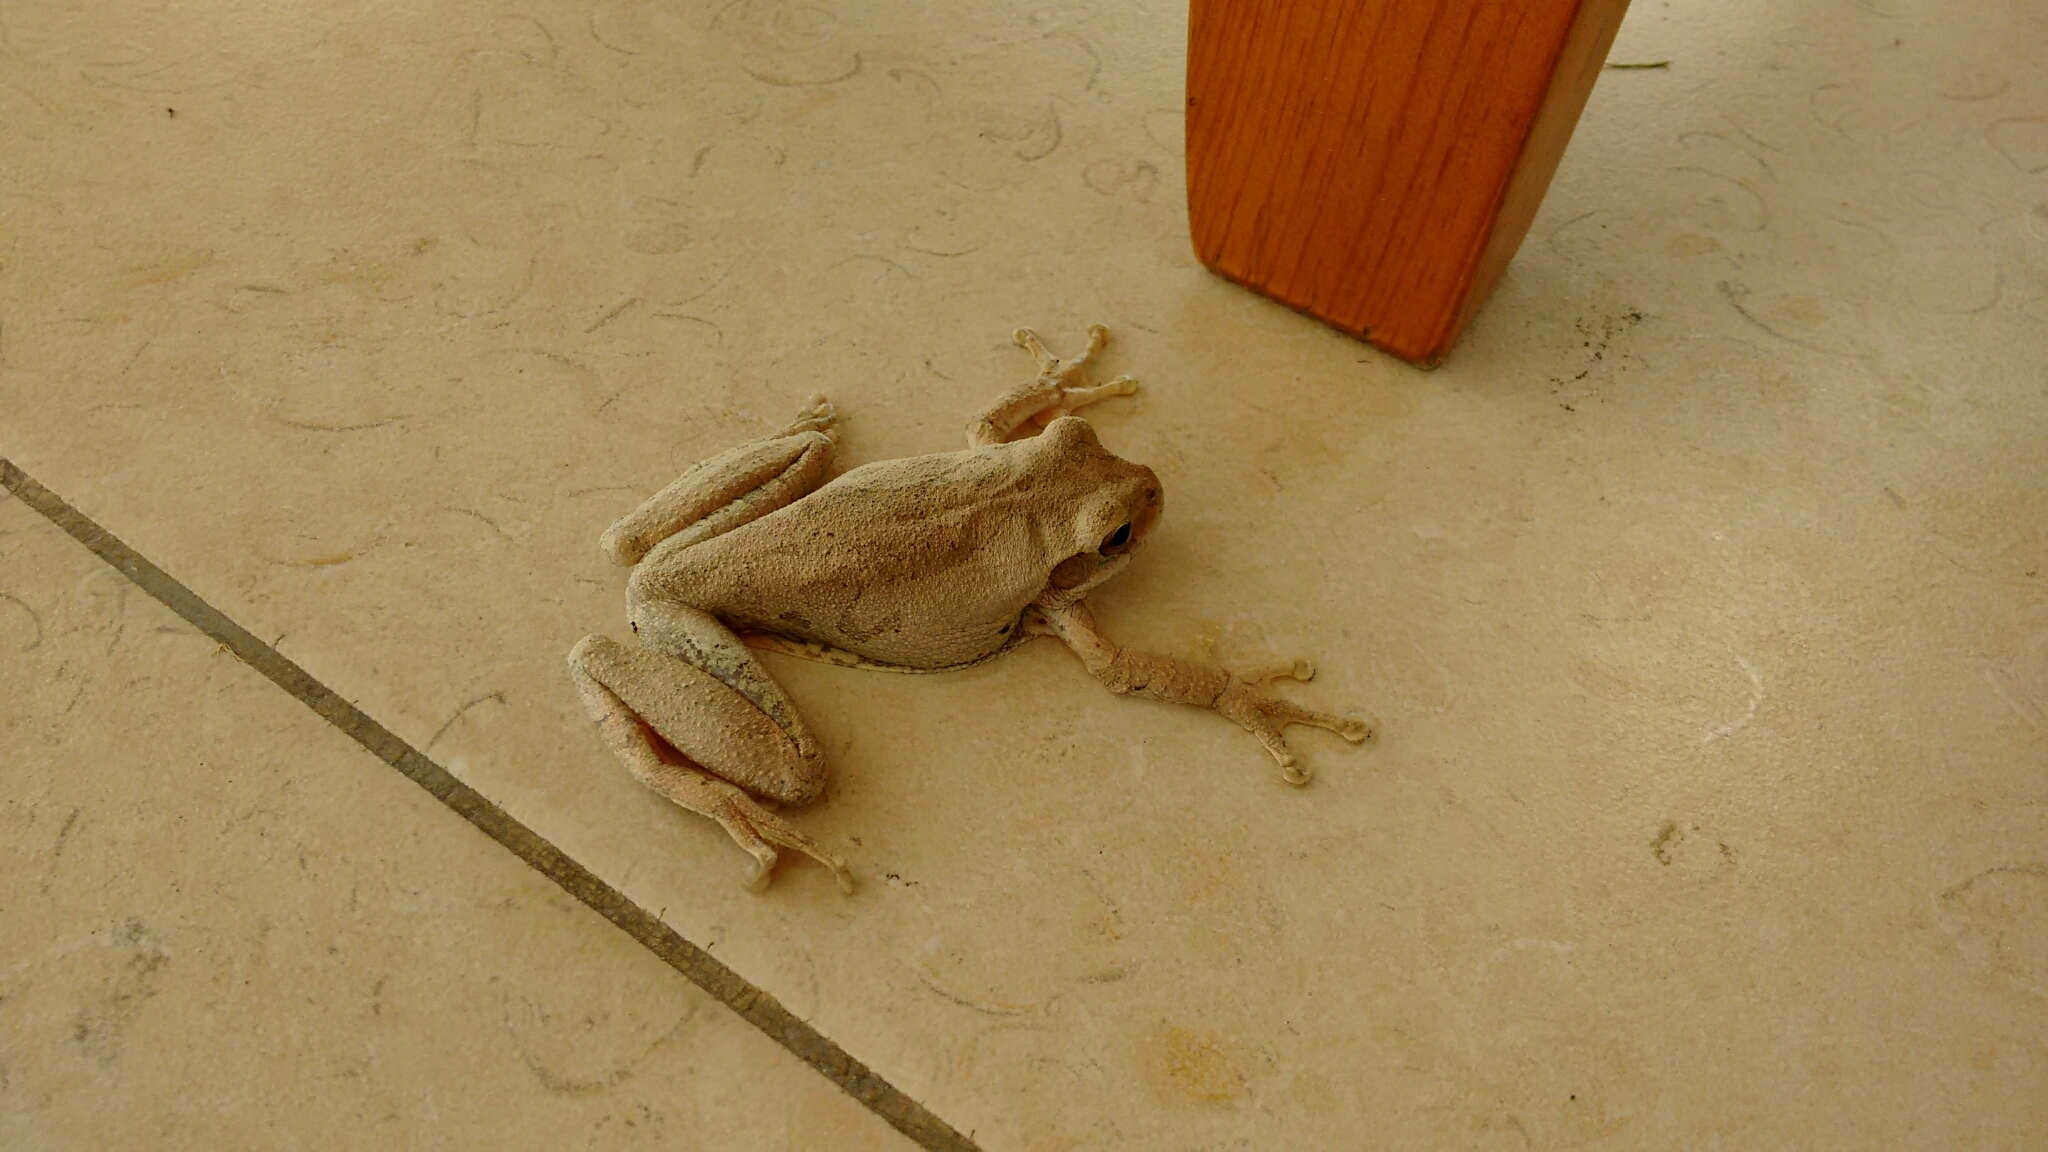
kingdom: Animalia
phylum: Chordata
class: Amphibia
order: Anura
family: Hylidae
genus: Smilisca
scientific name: Smilisca baudinii
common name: Mexican smilisca
